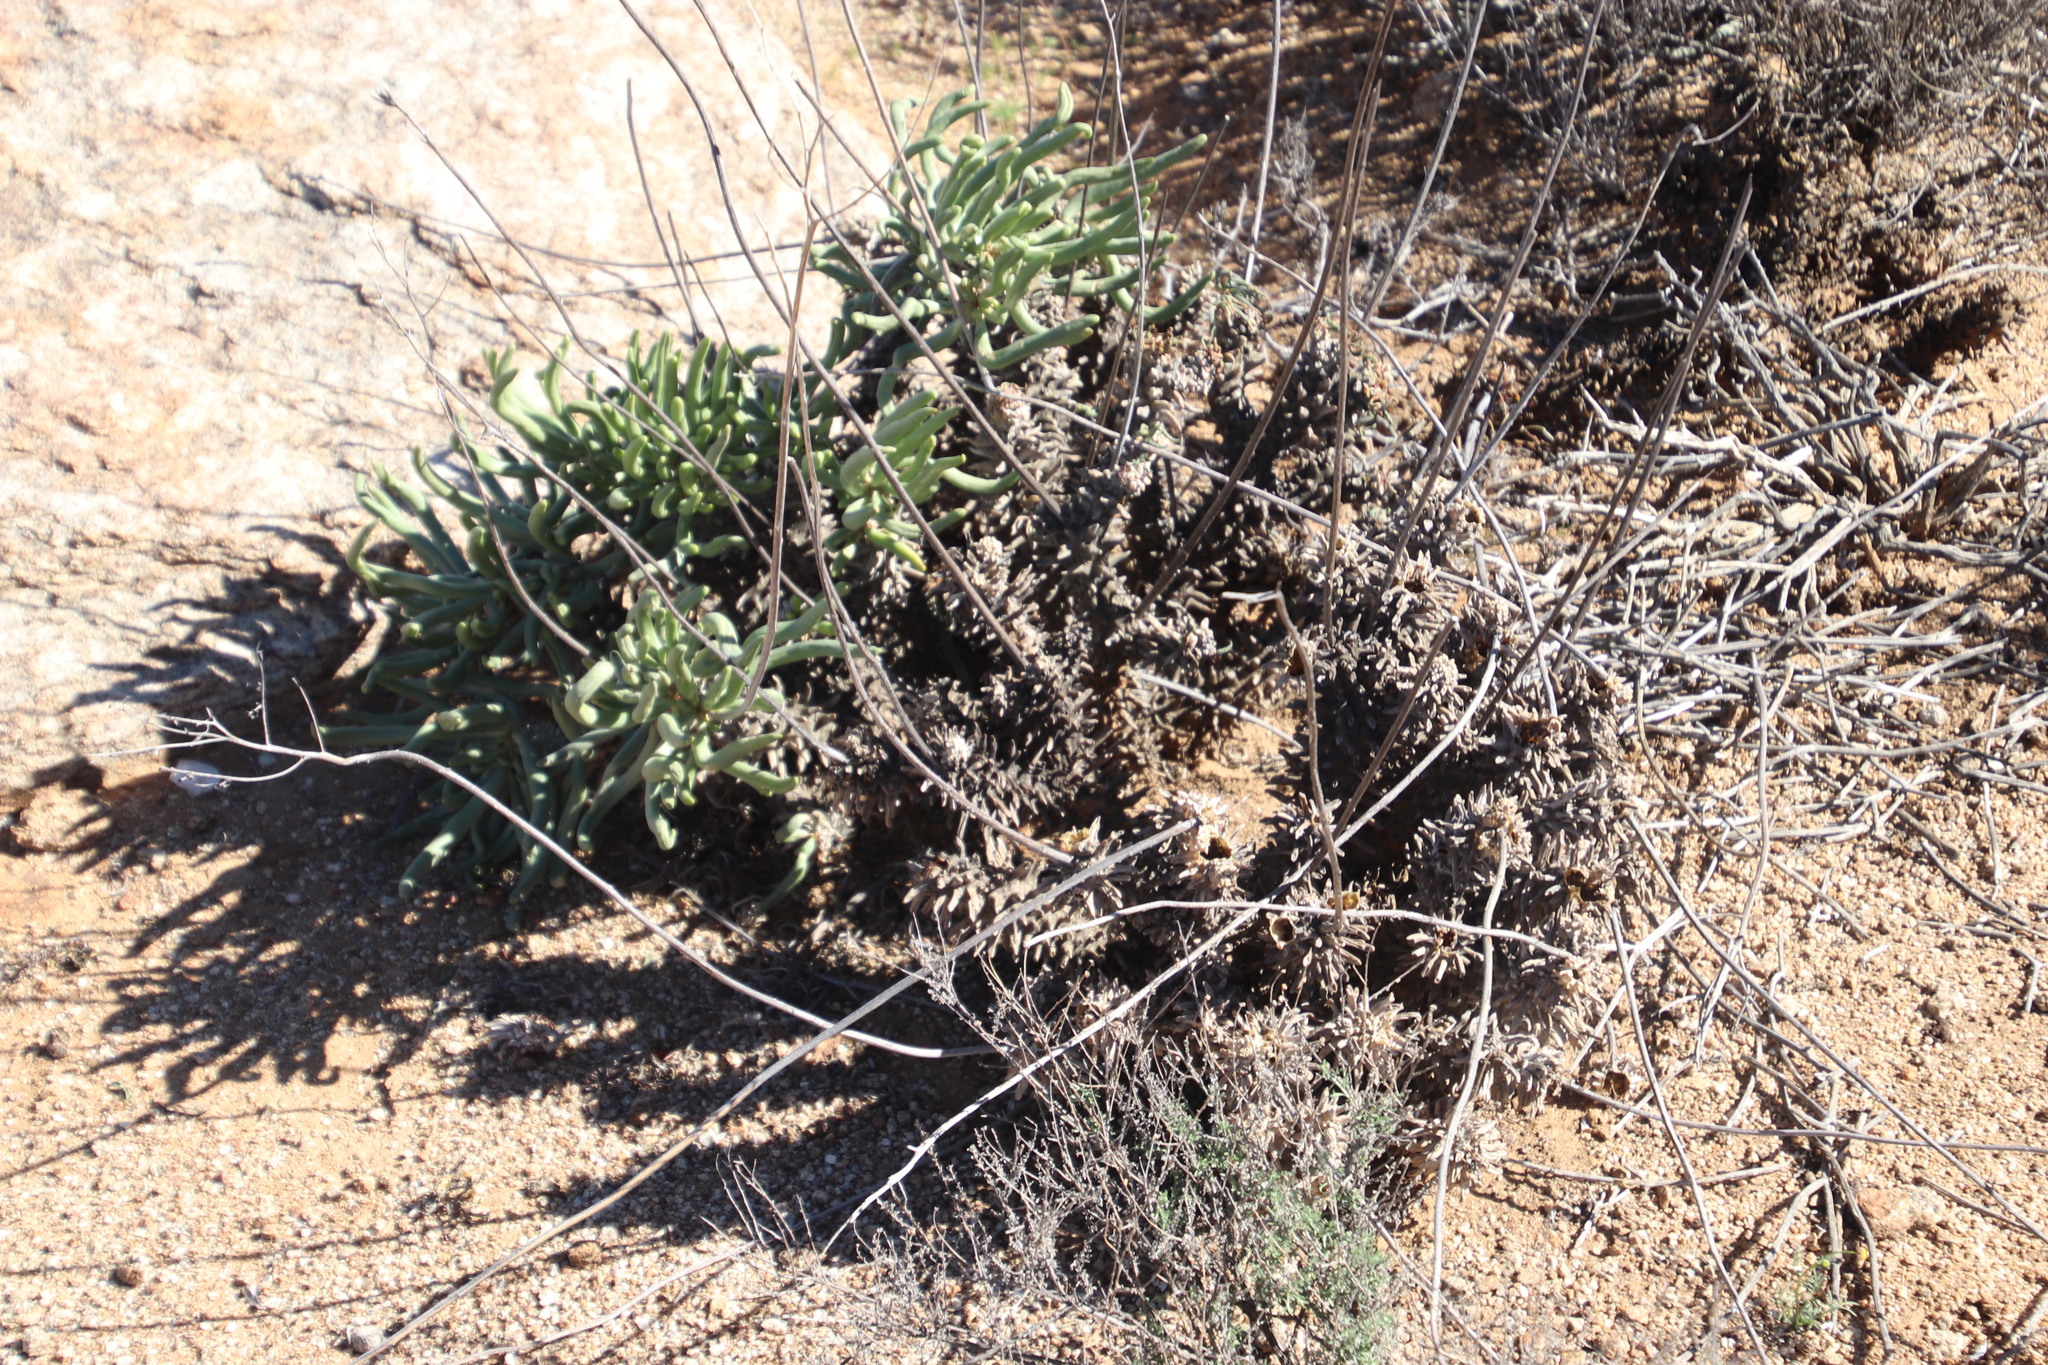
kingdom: Plantae
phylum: Tracheophyta
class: Magnoliopsida
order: Saxifragales
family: Crassulaceae
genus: Tylecodon
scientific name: Tylecodon wallichii
